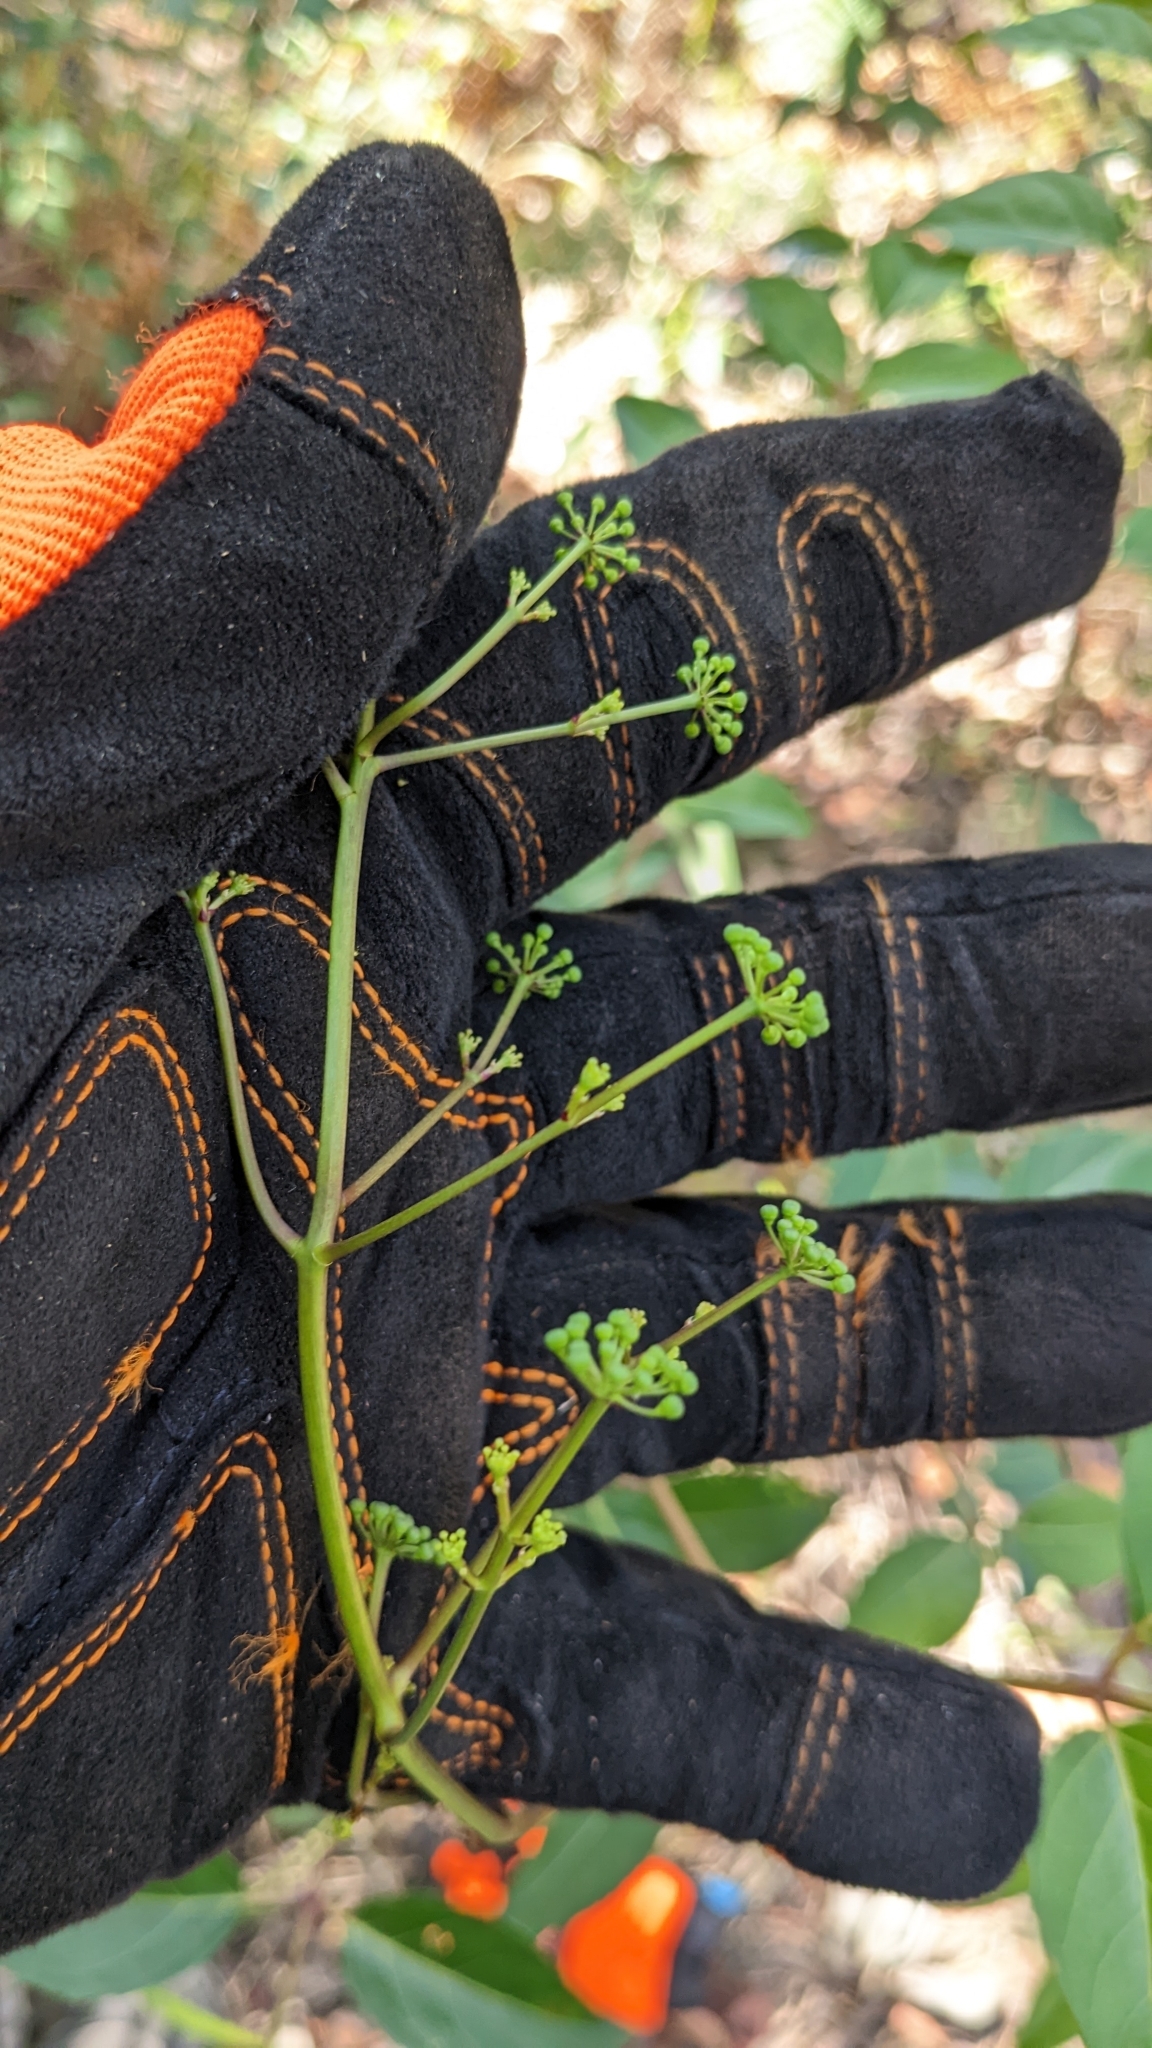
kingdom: Plantae
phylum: Tracheophyta
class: Magnoliopsida
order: Apiales
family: Araliaceae
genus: Polyscias
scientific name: Polyscias sambucifolia
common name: Elderberry-ash
